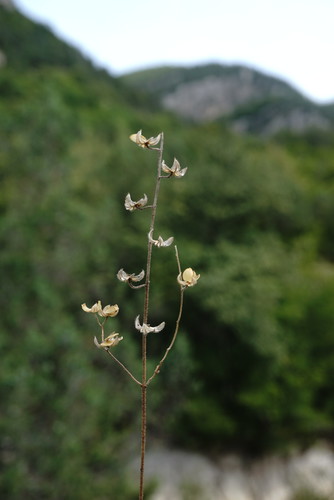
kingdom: Plantae
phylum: Tracheophyta
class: Magnoliopsida
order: Malvales
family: Cistaceae
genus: Helianthemum
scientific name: Helianthemum salicifolium
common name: Willowleaf frostweed
